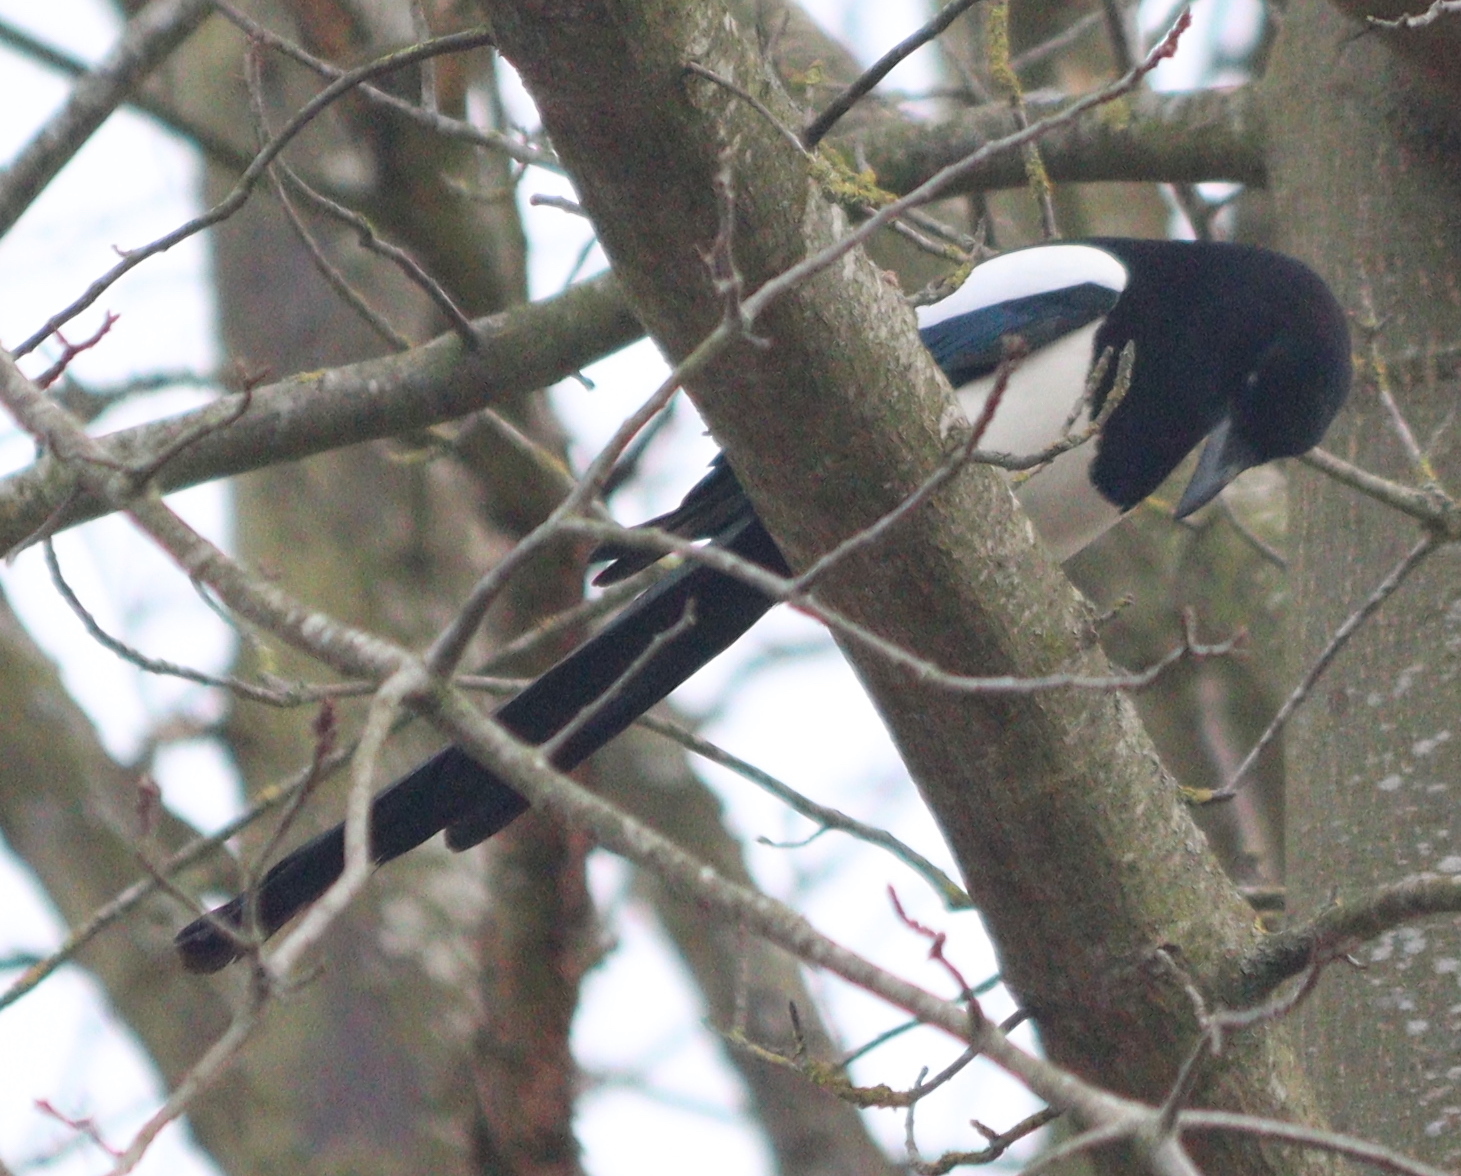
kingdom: Animalia
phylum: Chordata
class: Aves
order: Passeriformes
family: Corvidae
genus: Pica
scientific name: Pica pica
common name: Eurasian magpie
